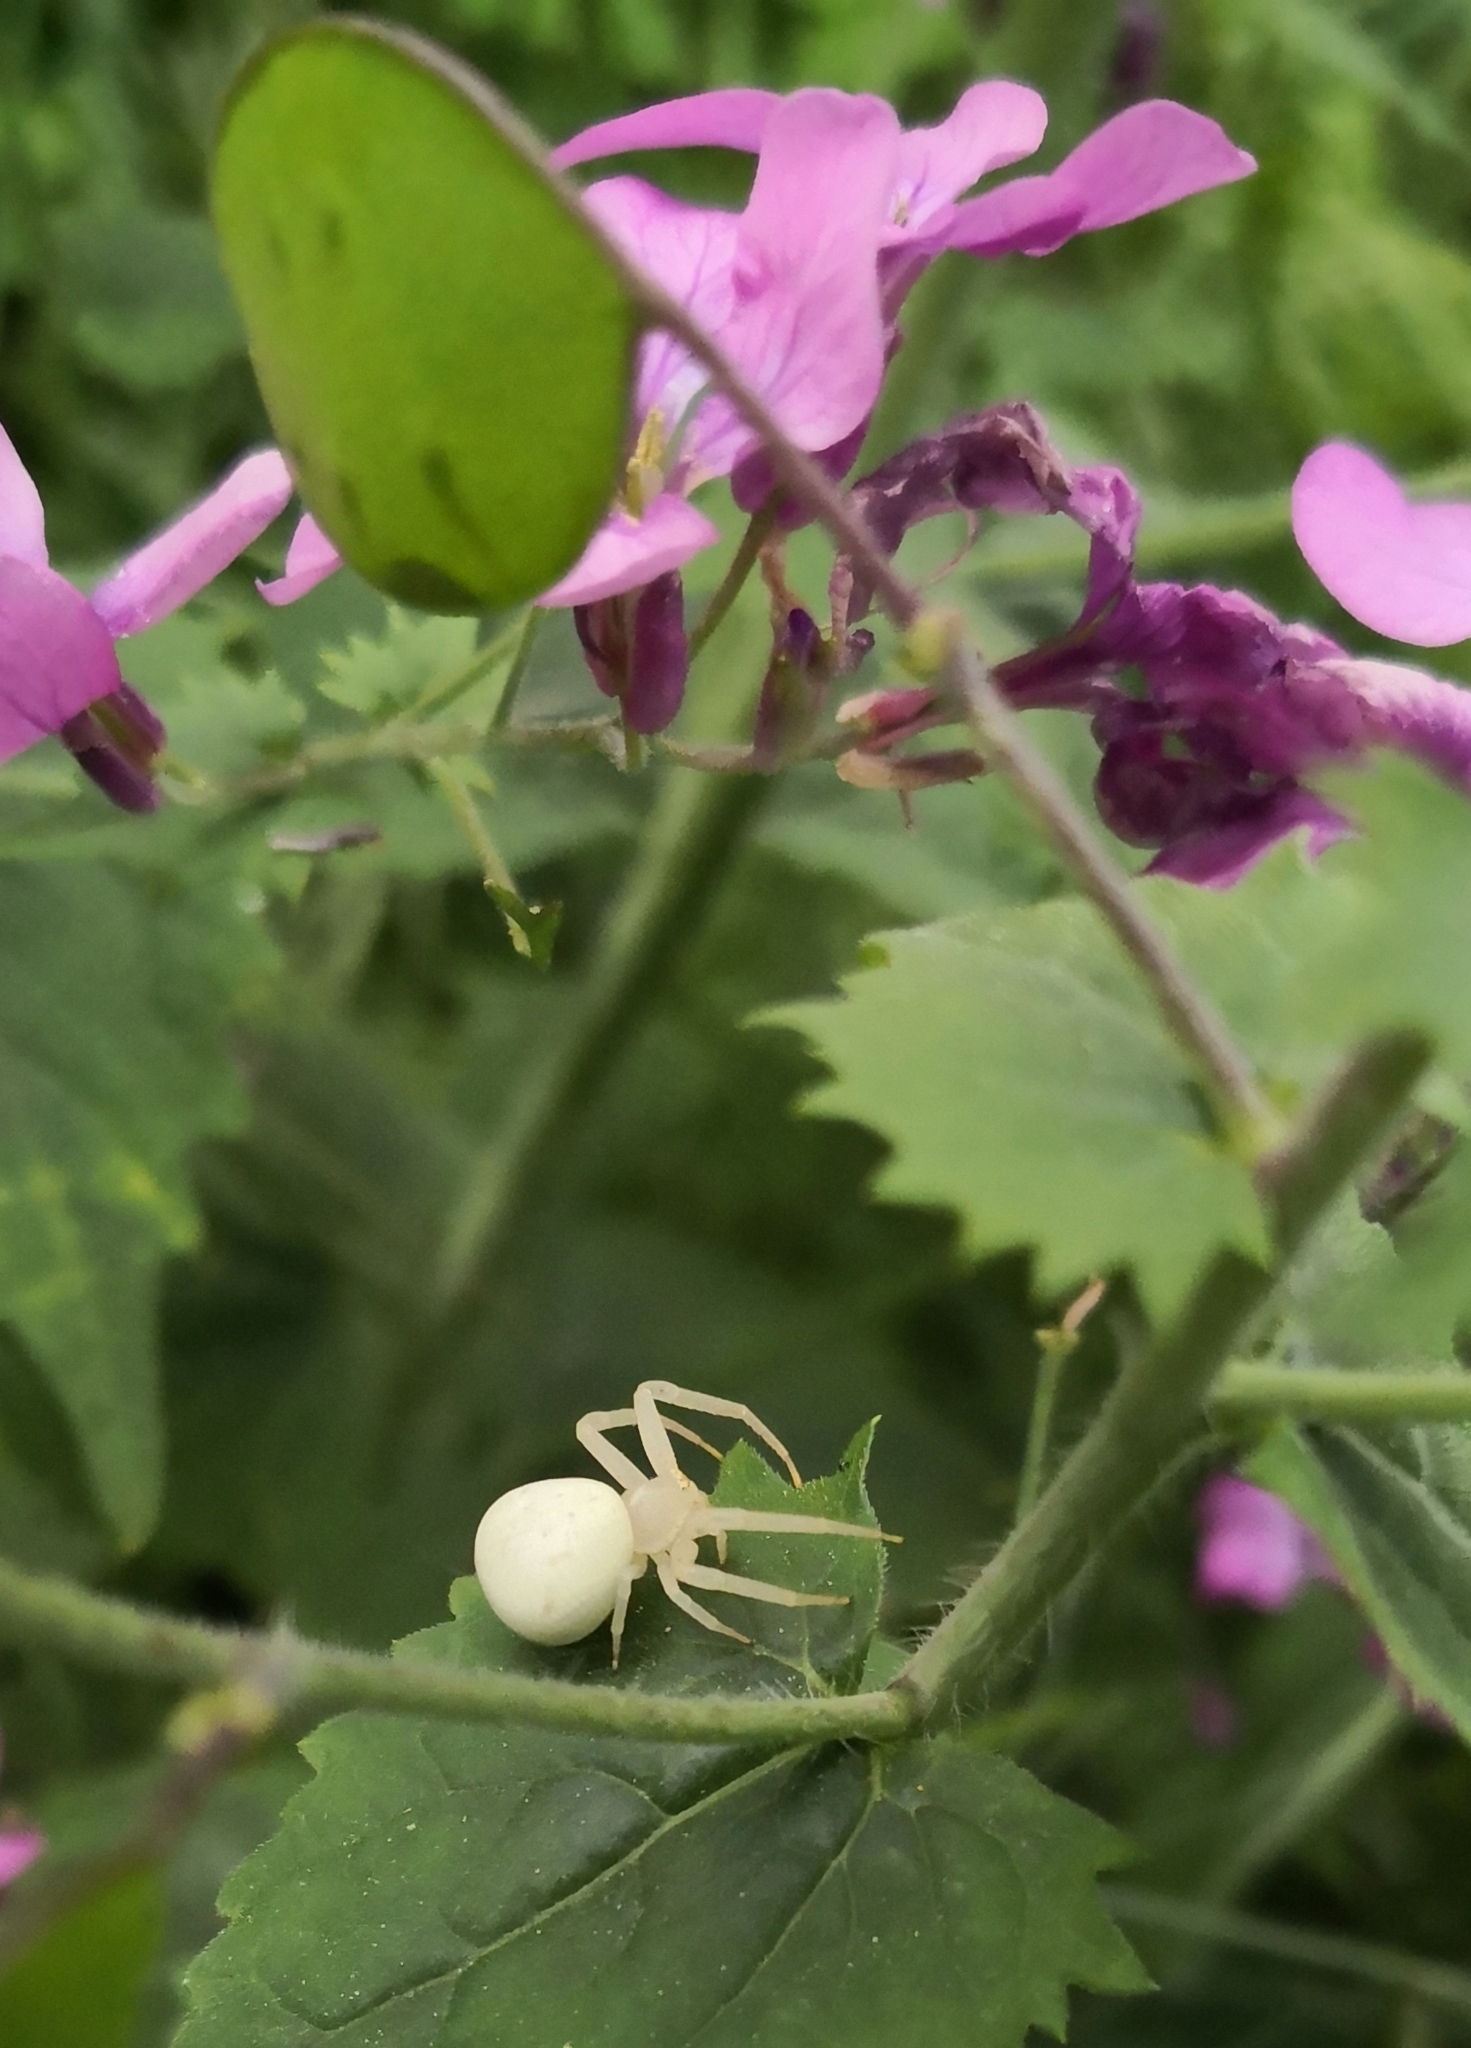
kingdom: Animalia
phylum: Arthropoda
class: Arachnida
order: Araneae
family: Thomisidae
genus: Misumena
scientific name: Misumena vatia
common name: Goldenrod crab spider
